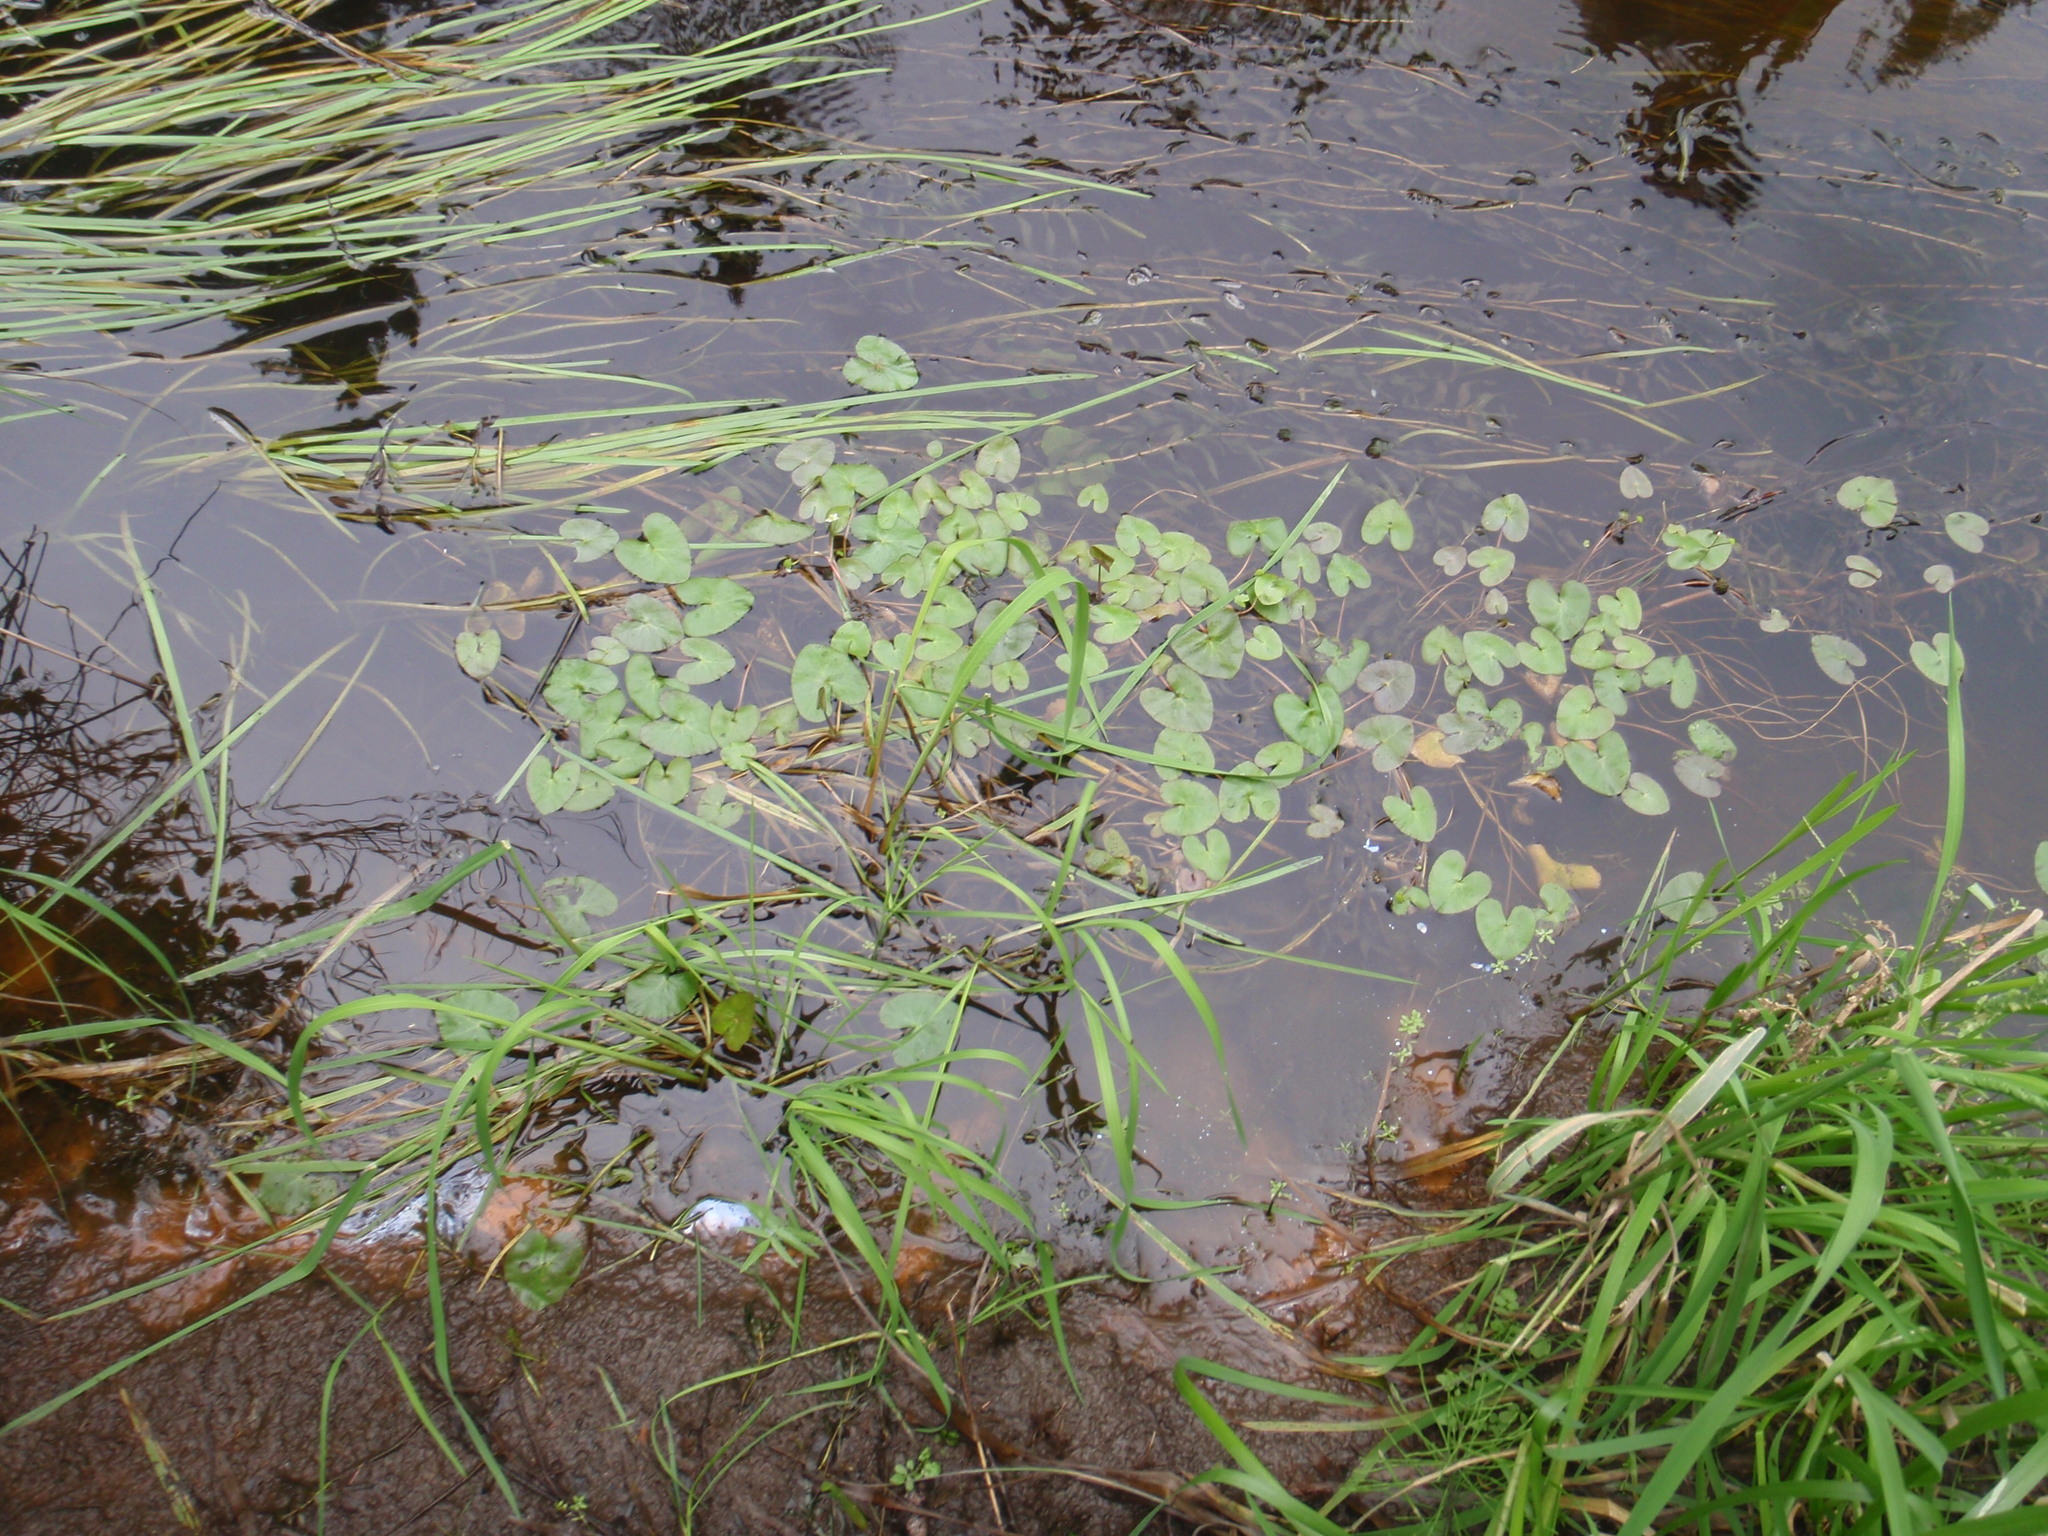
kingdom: Plantae
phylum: Tracheophyta
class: Magnoliopsida
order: Ranunculales
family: Ranunculaceae
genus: Caltha
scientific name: Caltha natans
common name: Floating marsh marigold
